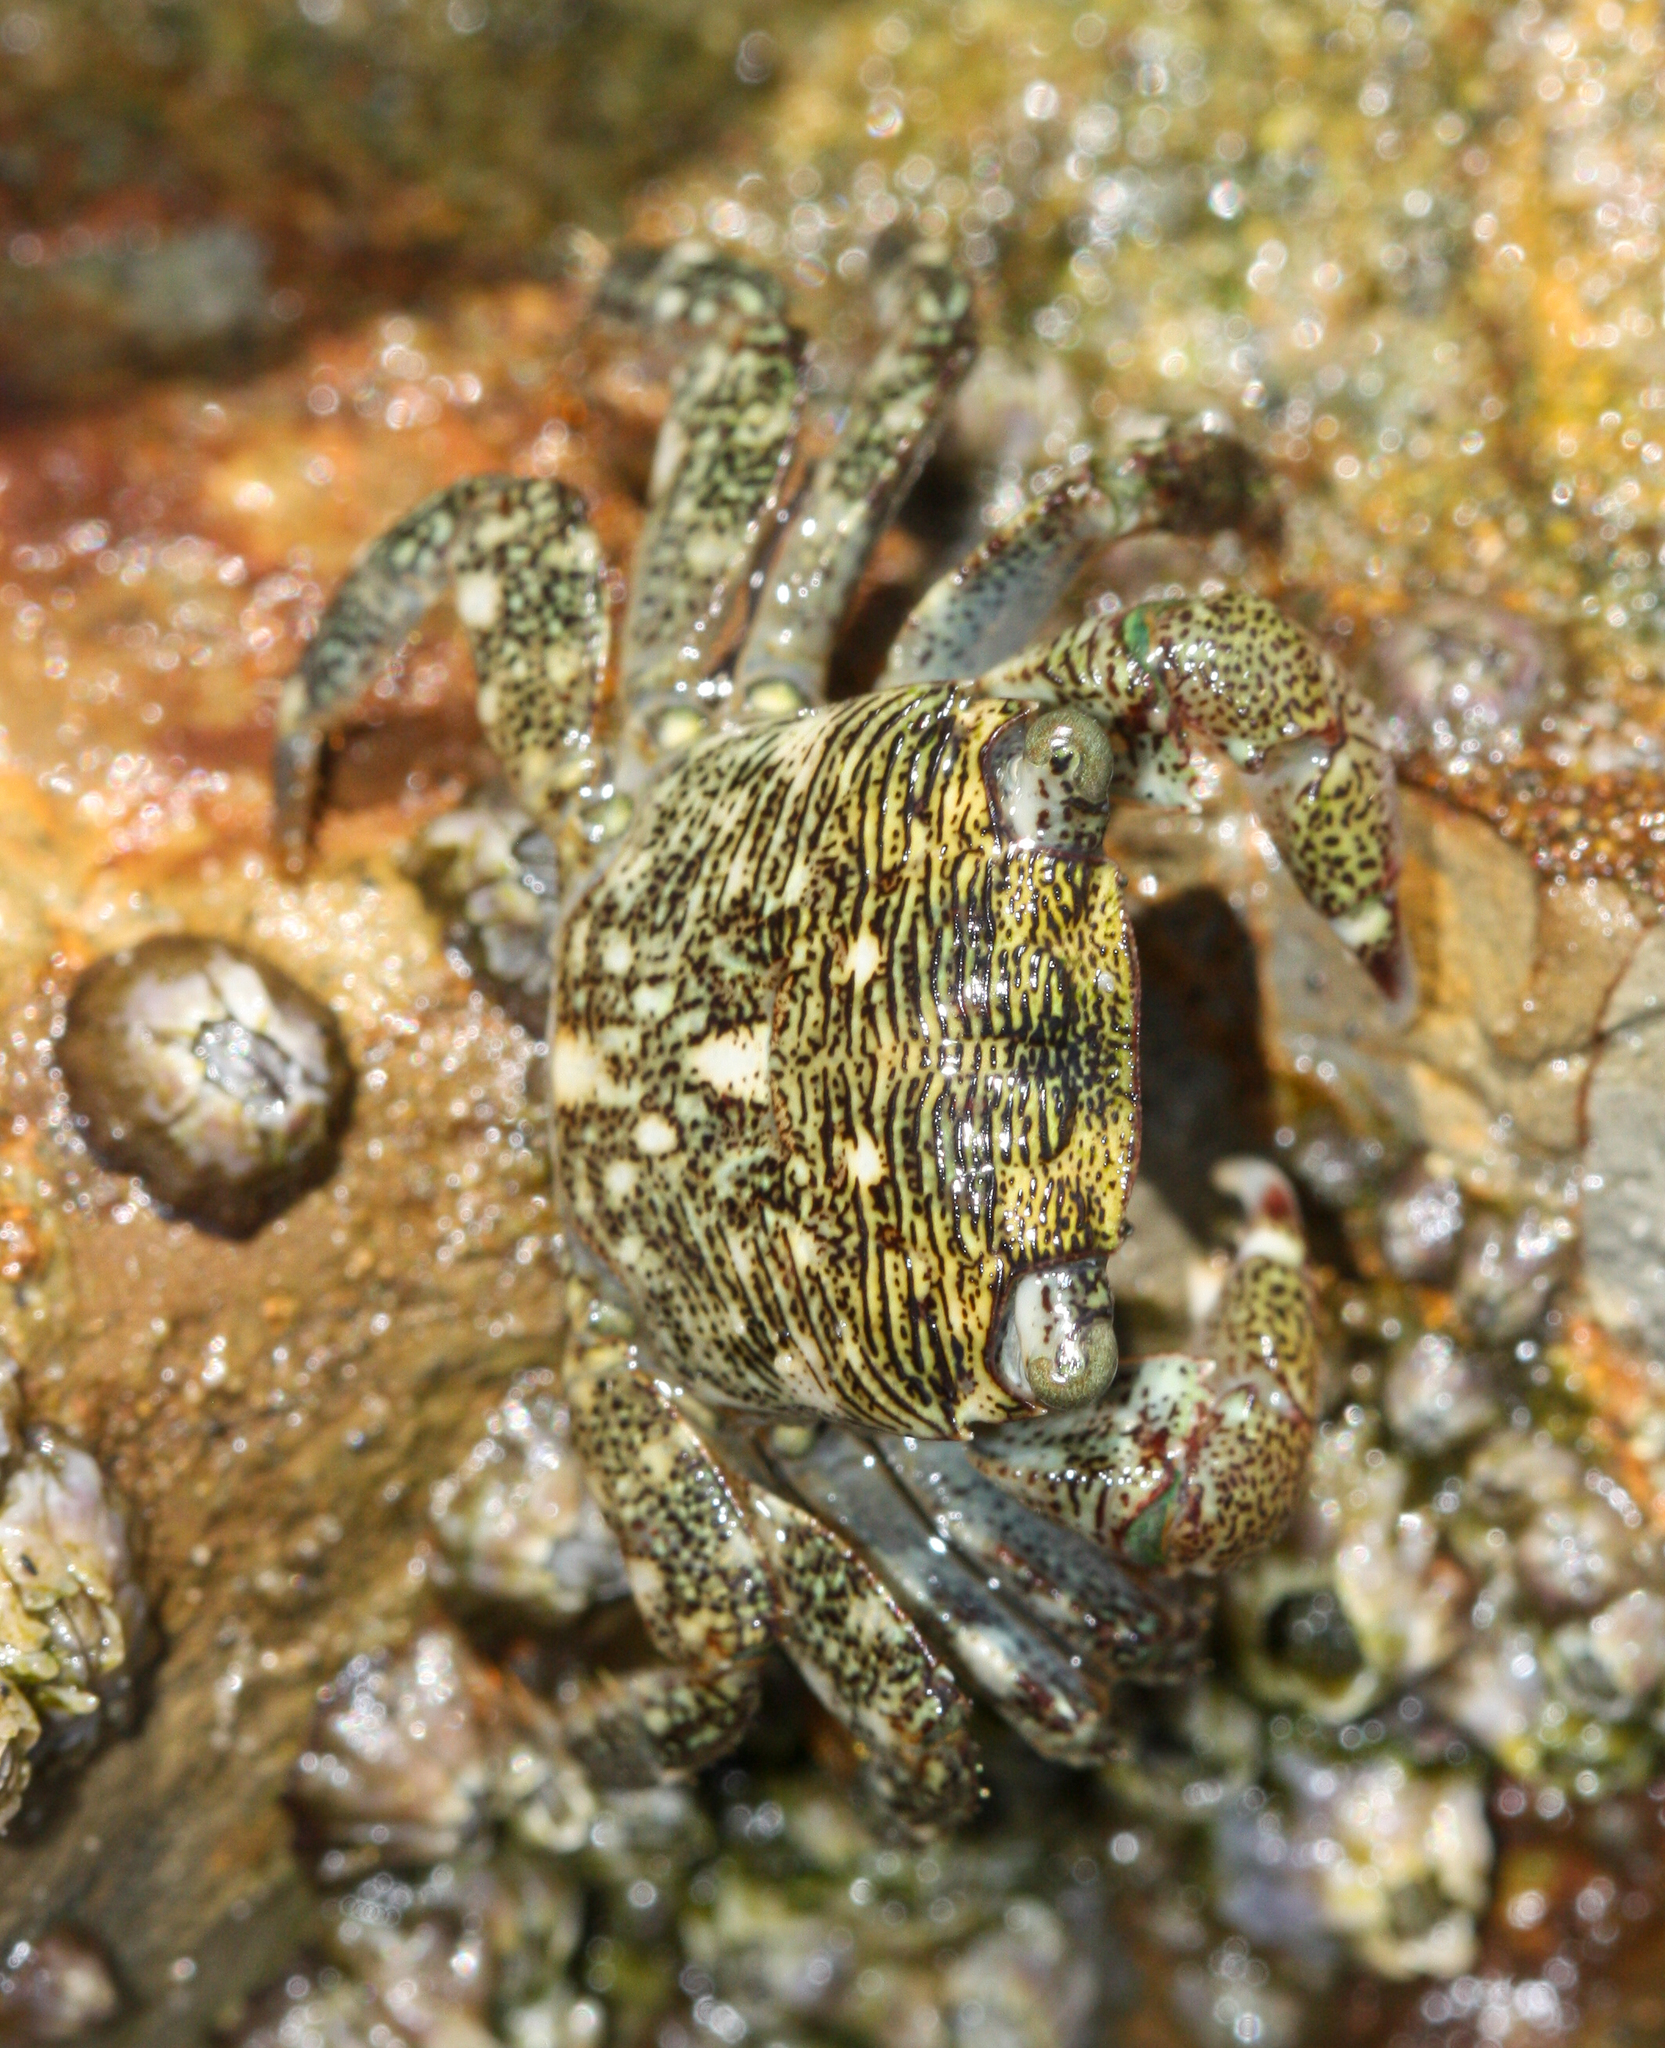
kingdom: Animalia
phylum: Arthropoda
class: Malacostraca
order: Decapoda
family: Grapsidae
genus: Pachygrapsus
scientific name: Pachygrapsus crassipes
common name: Striped shore crab
